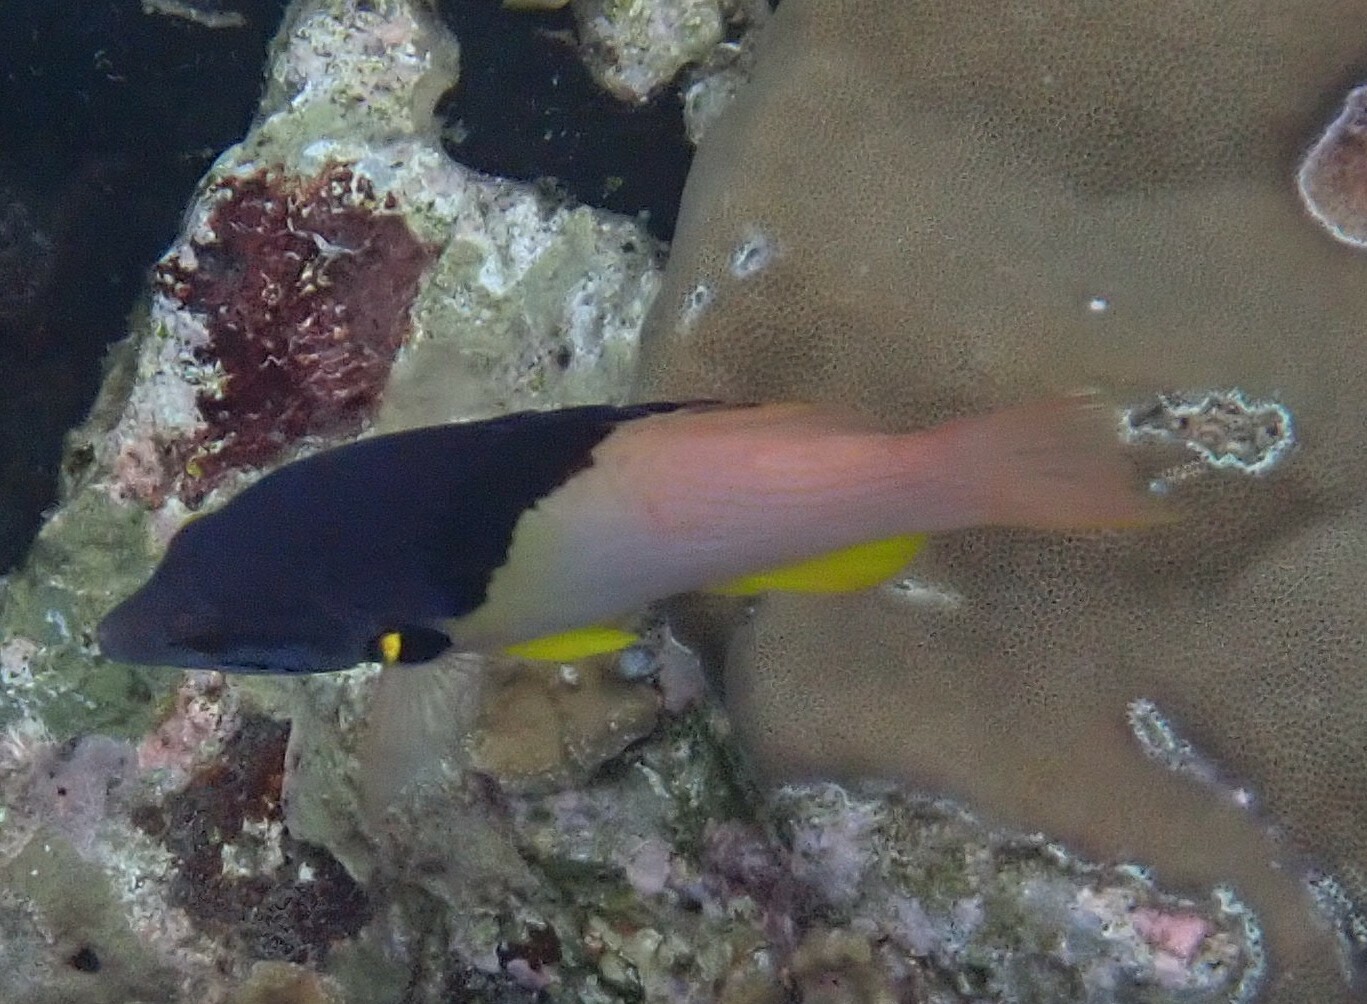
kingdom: Animalia
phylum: Chordata
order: Perciformes
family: Labridae
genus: Bodianus
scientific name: Bodianus mesothorax
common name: Coral hogfish
